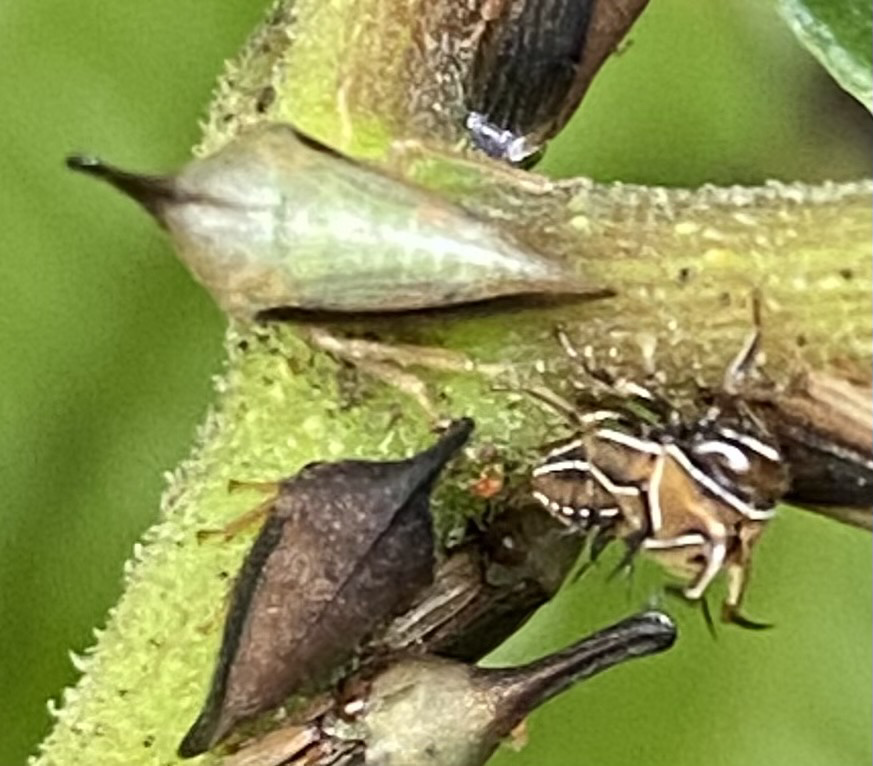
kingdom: Animalia
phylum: Arthropoda
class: Insecta
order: Hemiptera
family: Membracidae
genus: Guayaquila
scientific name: Guayaquila gracilicornis
